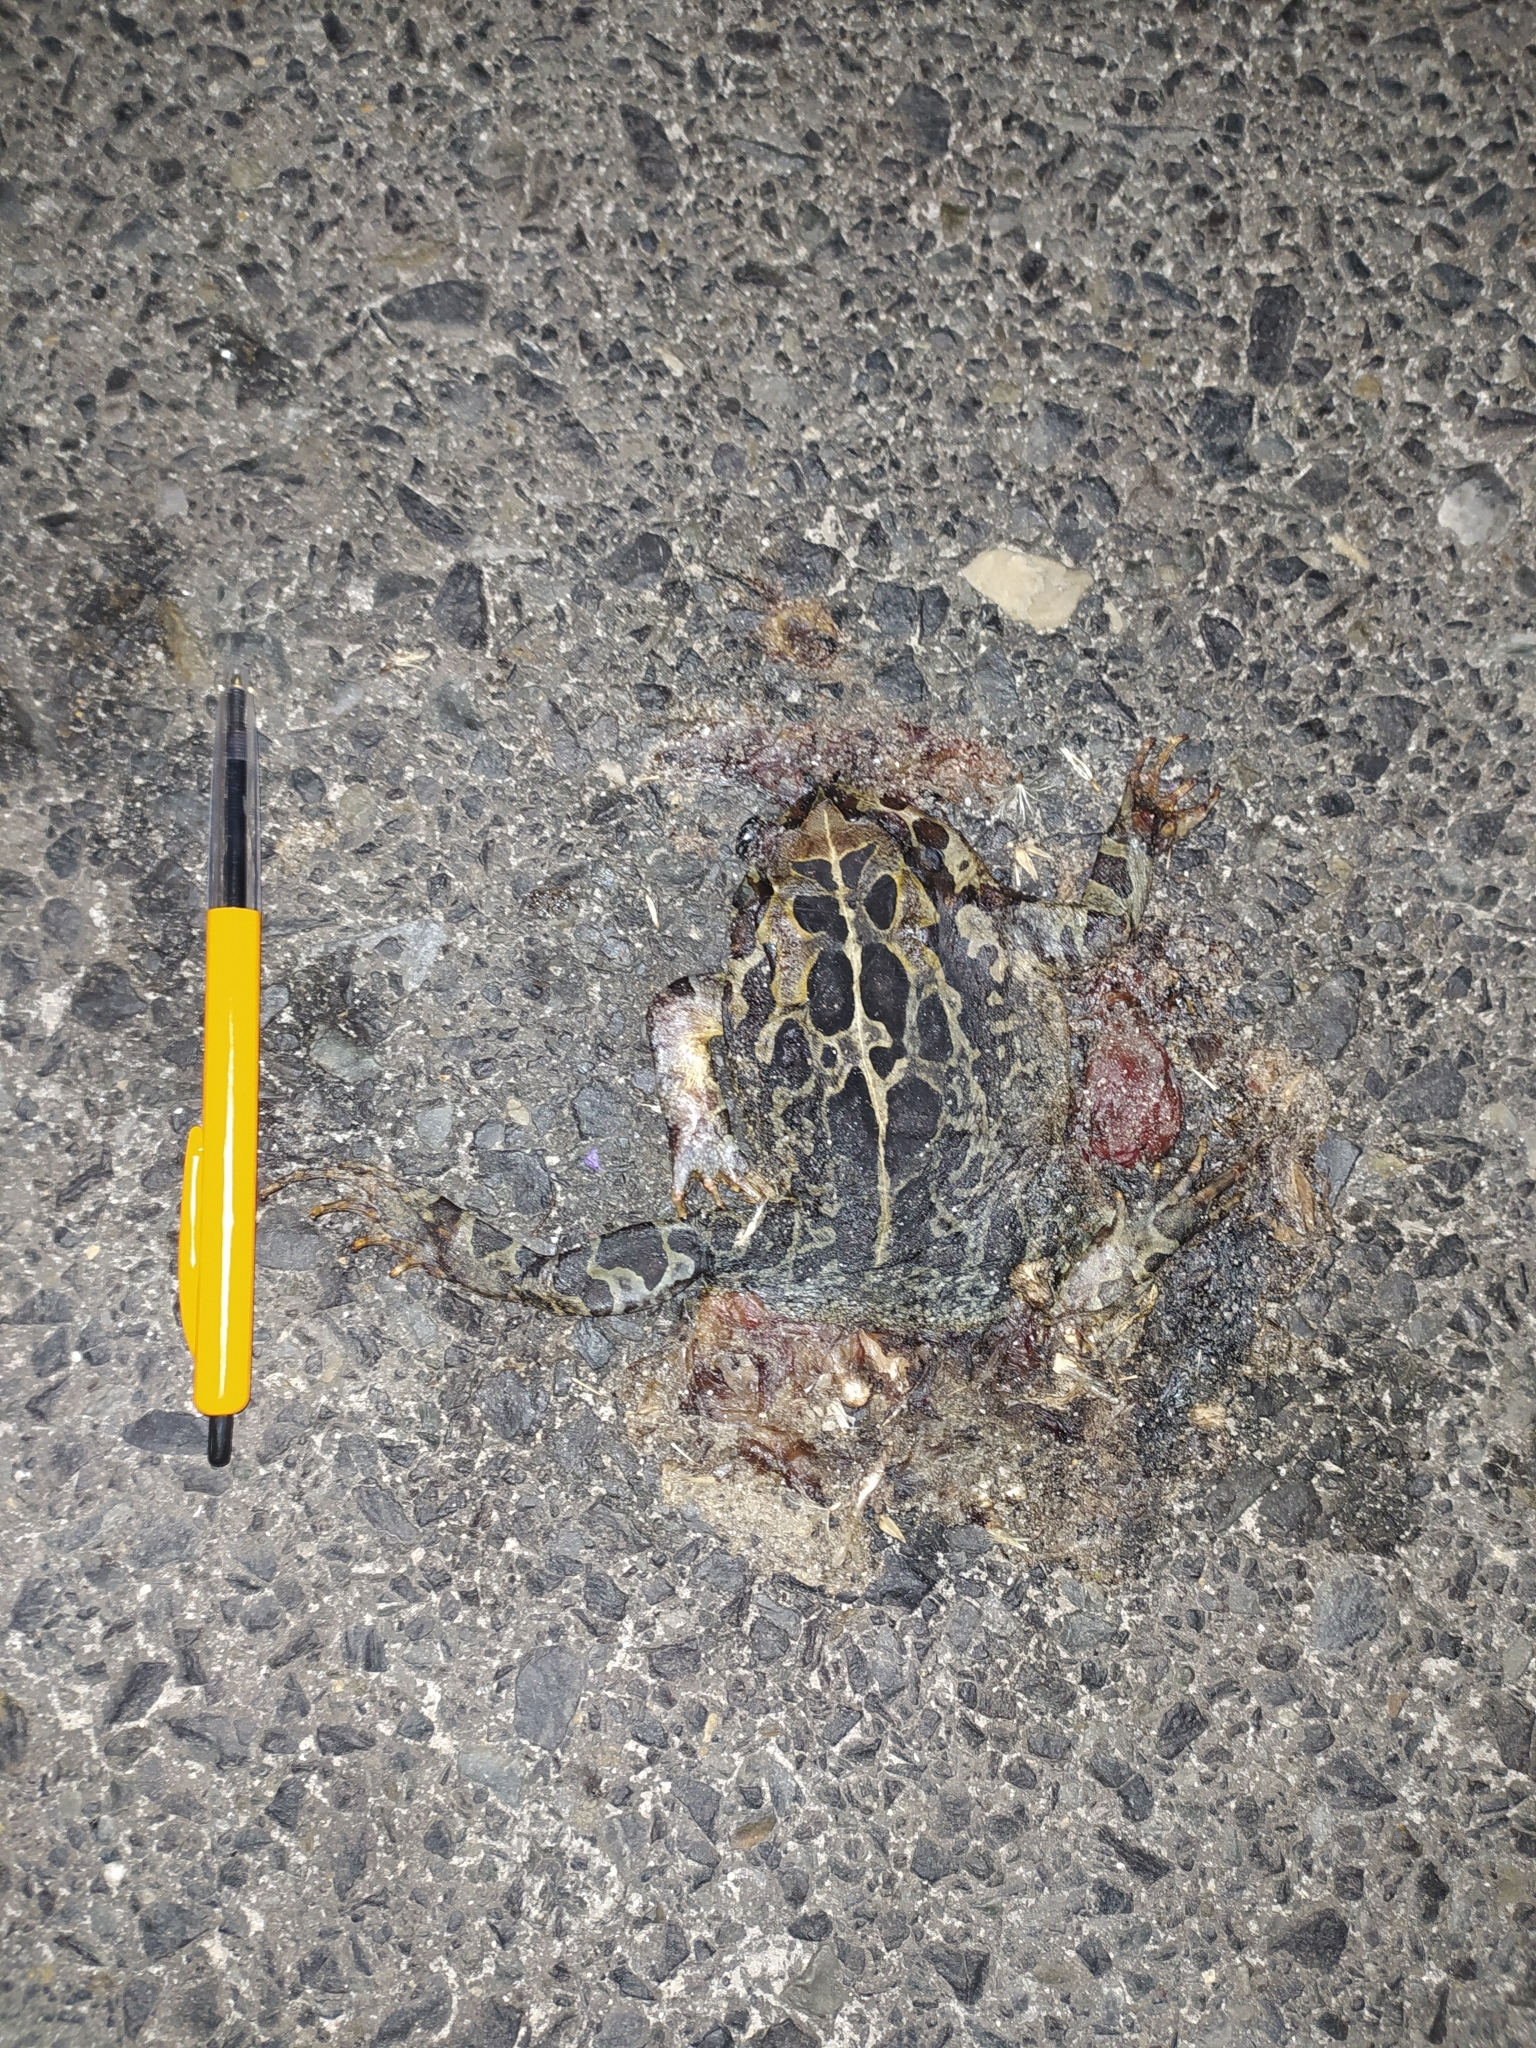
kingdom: Animalia
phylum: Chordata
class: Amphibia
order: Anura
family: Bufonidae
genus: Sclerophrys
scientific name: Sclerophrys pantherina
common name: Panther toad
